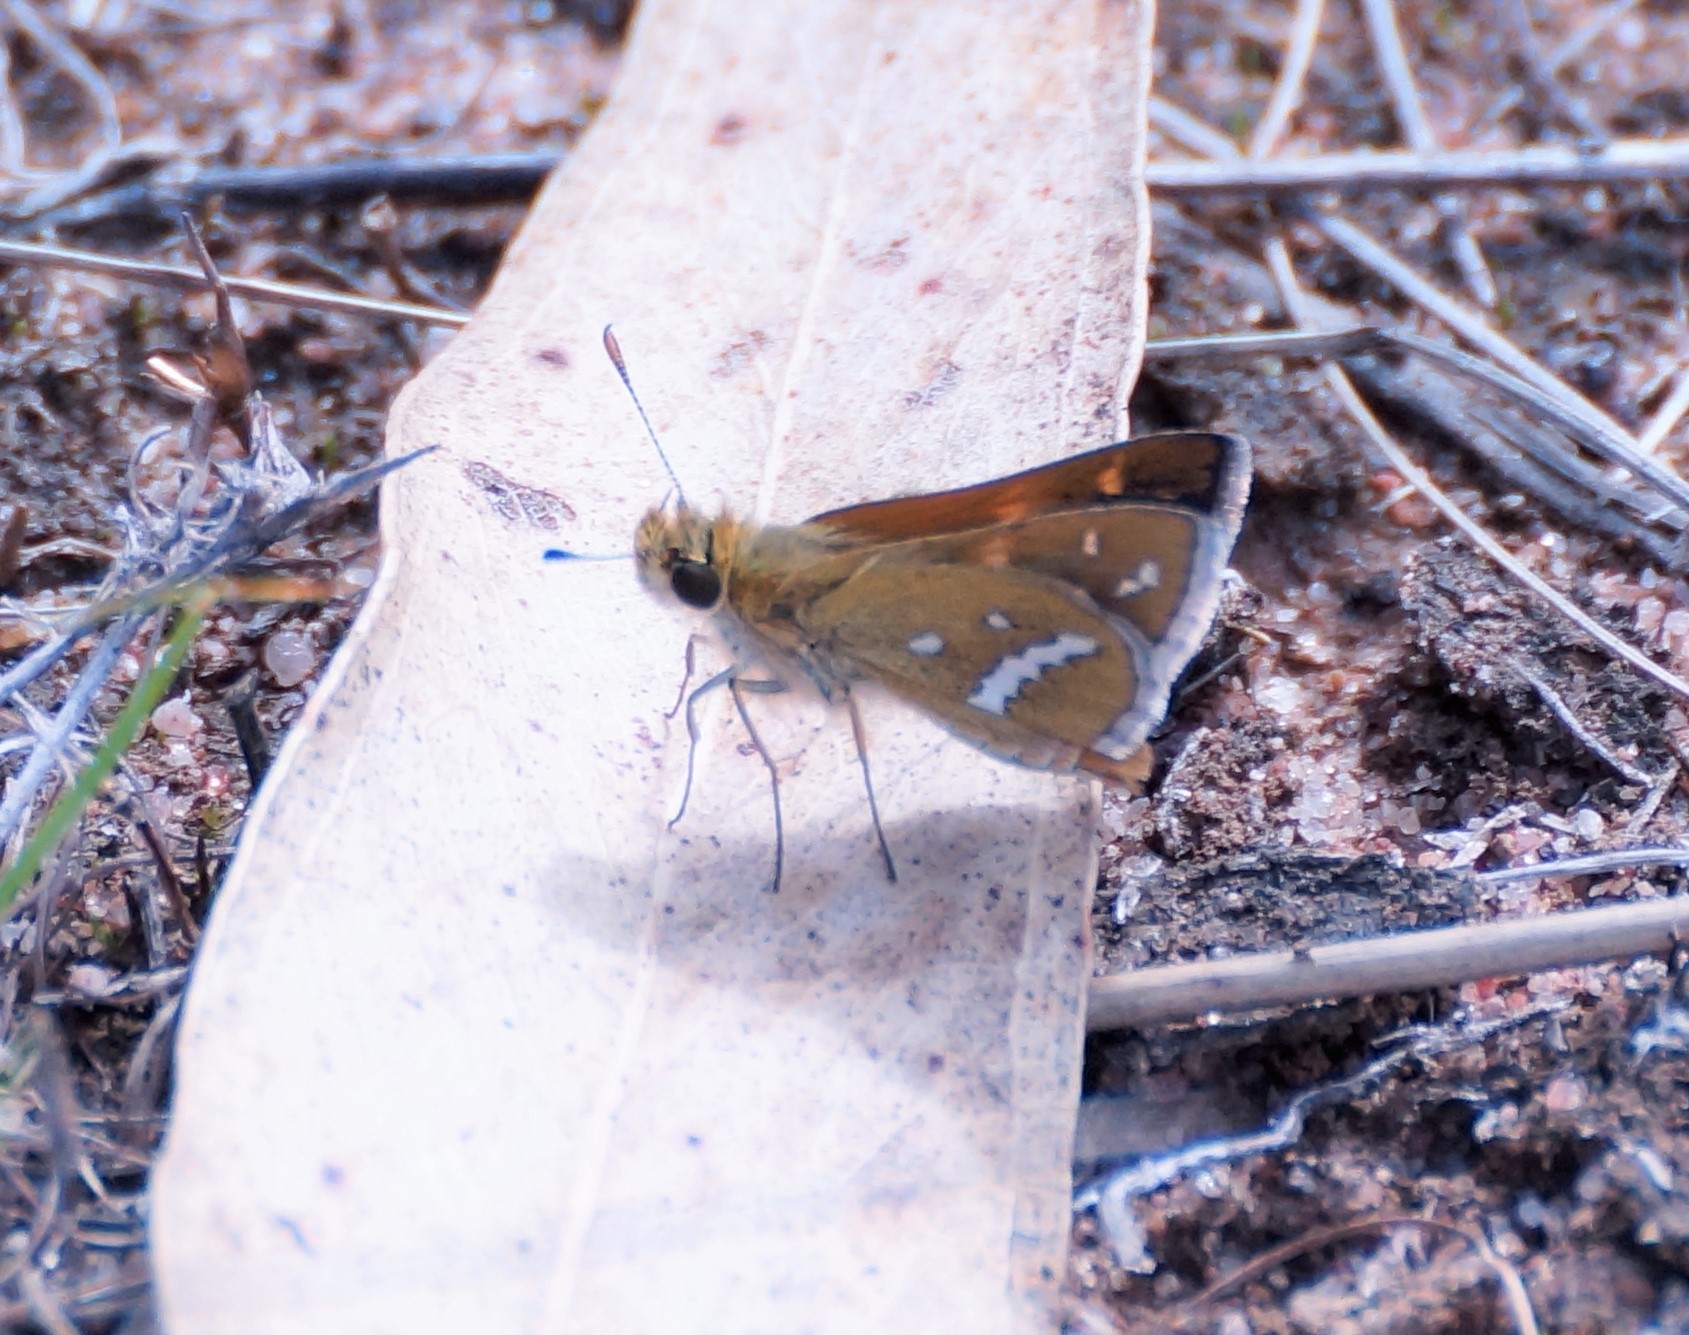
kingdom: Animalia
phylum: Arthropoda
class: Insecta
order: Lepidoptera
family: Hesperiidae
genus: Taractrocera
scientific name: Taractrocera papyria
